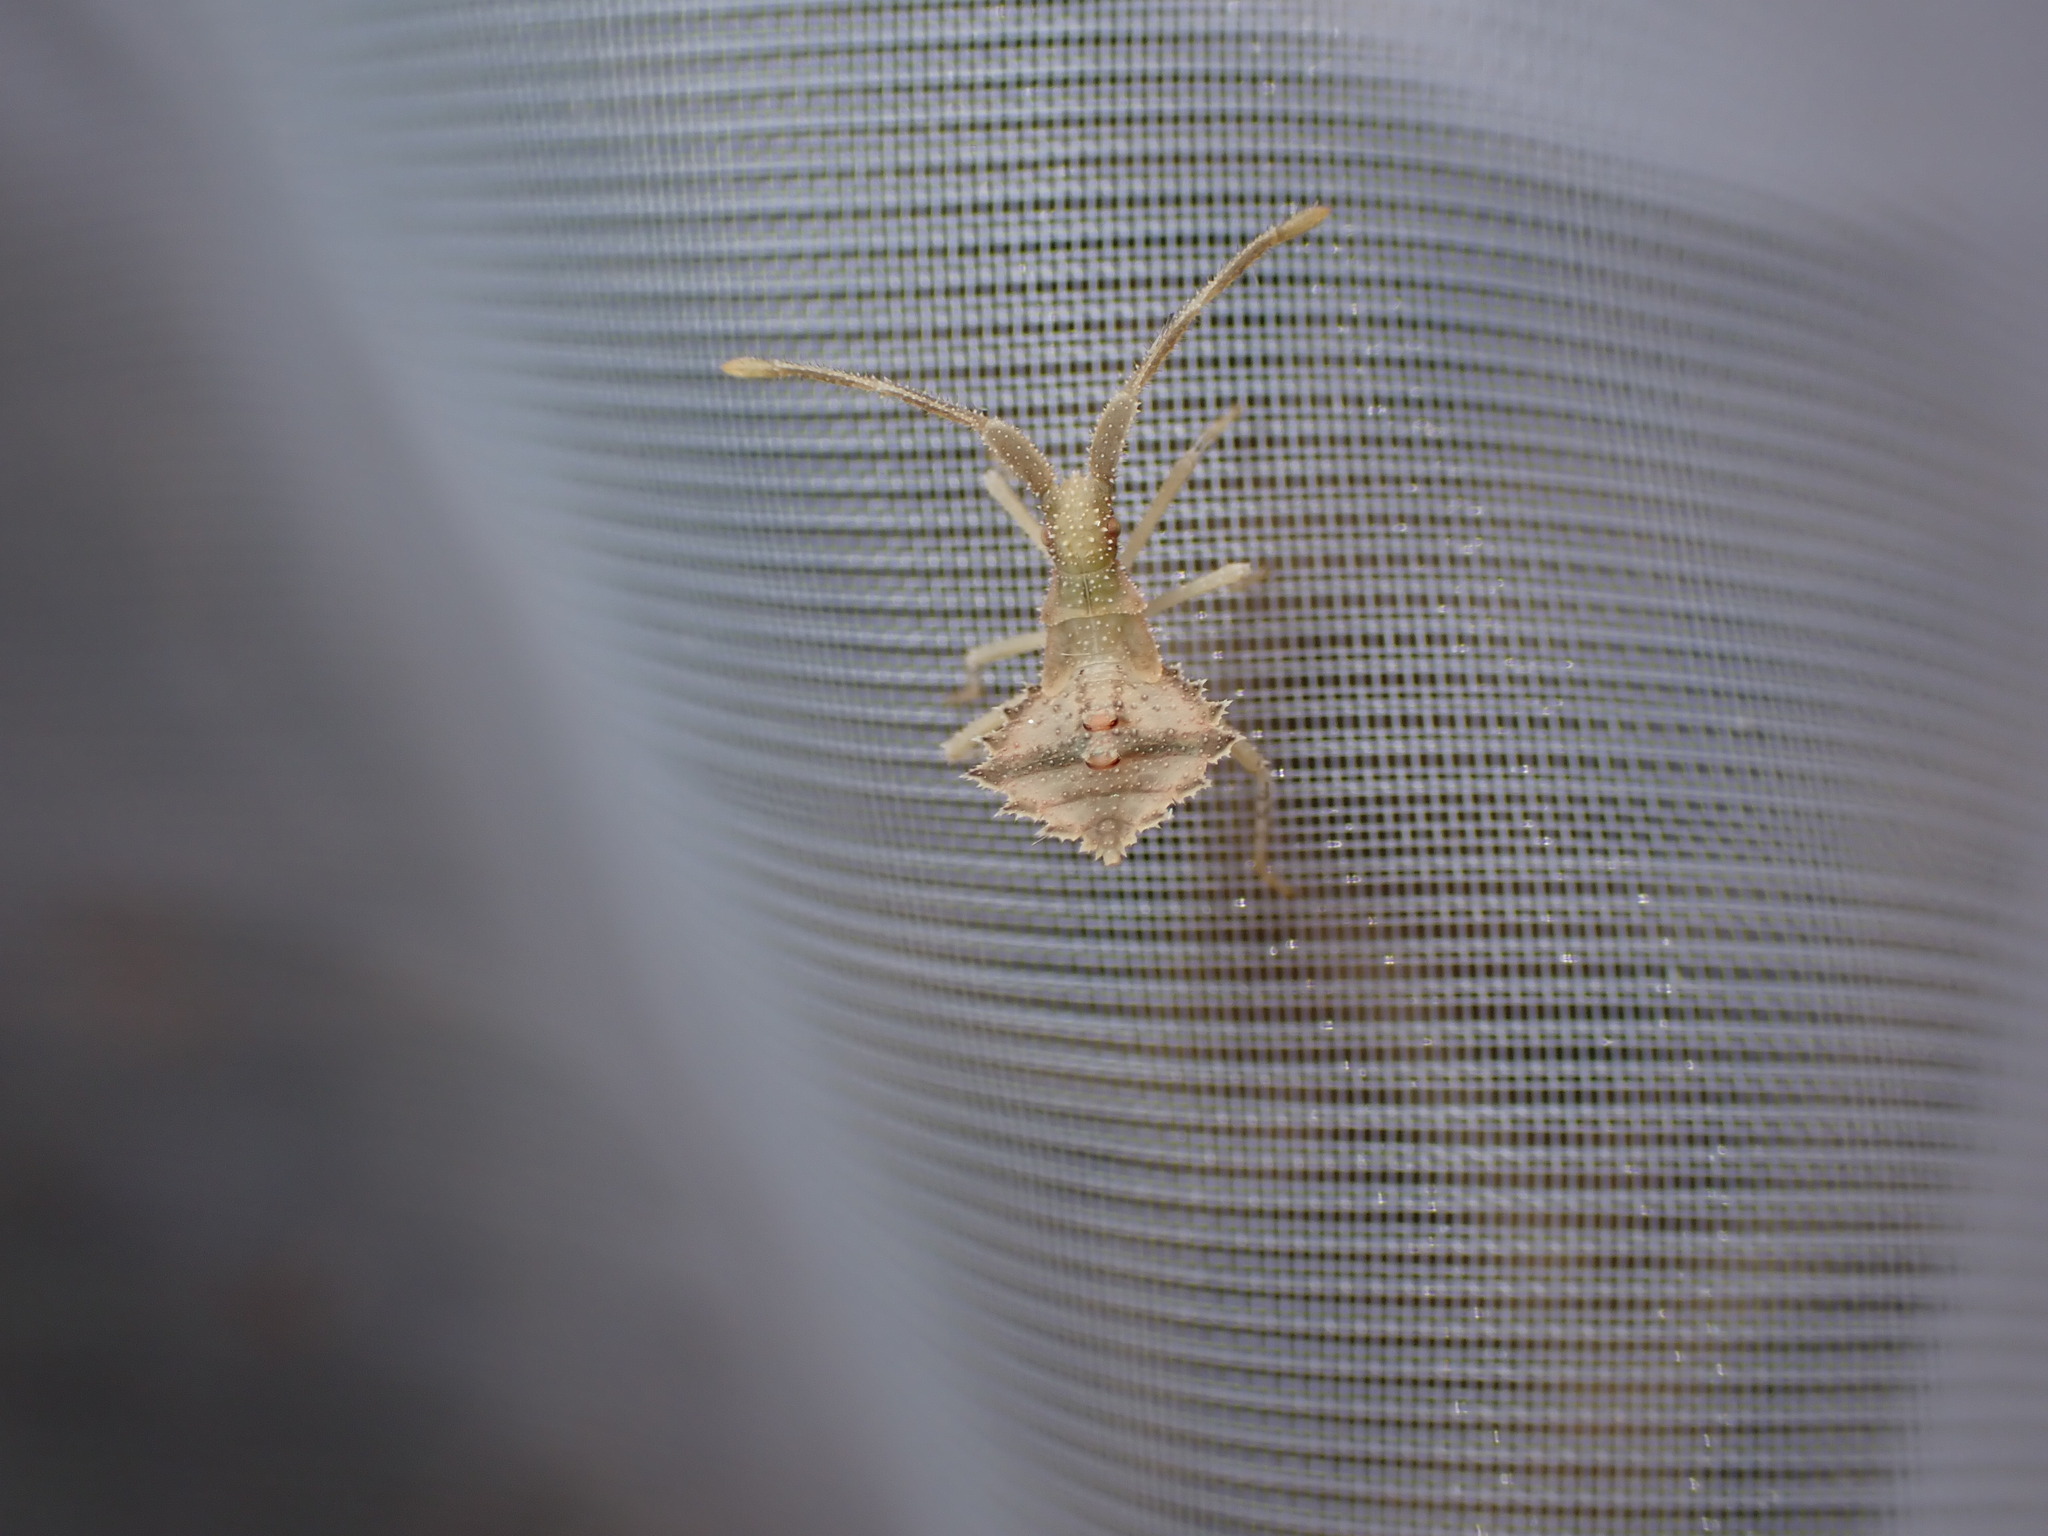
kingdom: Animalia
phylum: Arthropoda
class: Insecta
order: Hemiptera
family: Coreidae
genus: Syromastus
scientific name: Syromastus rhombeus
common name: Rhombic leatherbug
